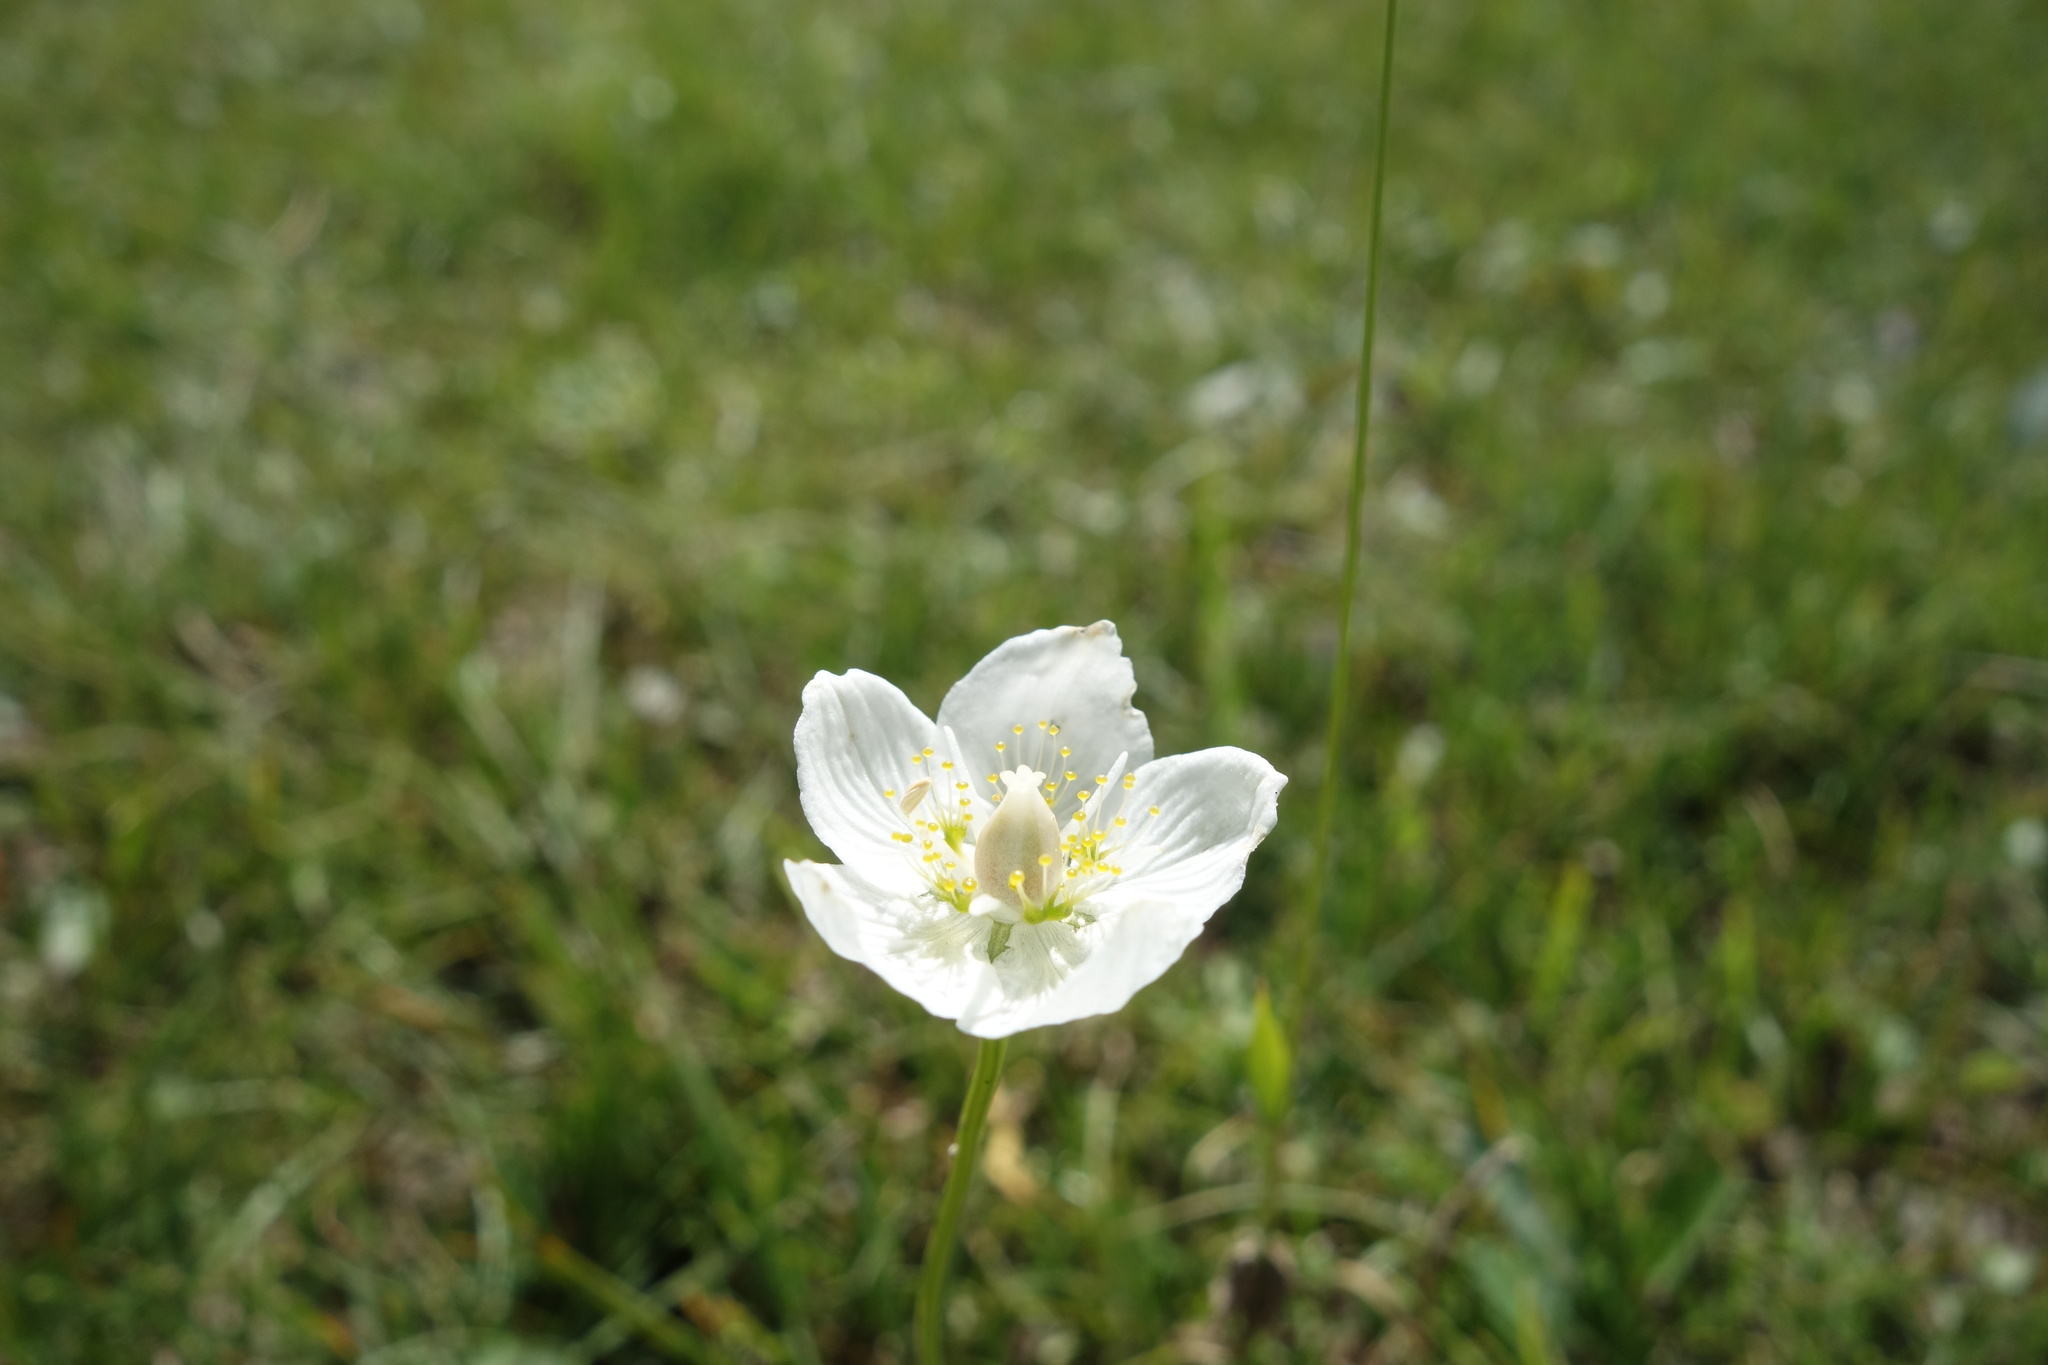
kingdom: Plantae
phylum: Tracheophyta
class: Magnoliopsida
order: Celastrales
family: Parnassiaceae
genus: Parnassia
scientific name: Parnassia palustris
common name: Grass-of-parnassus
